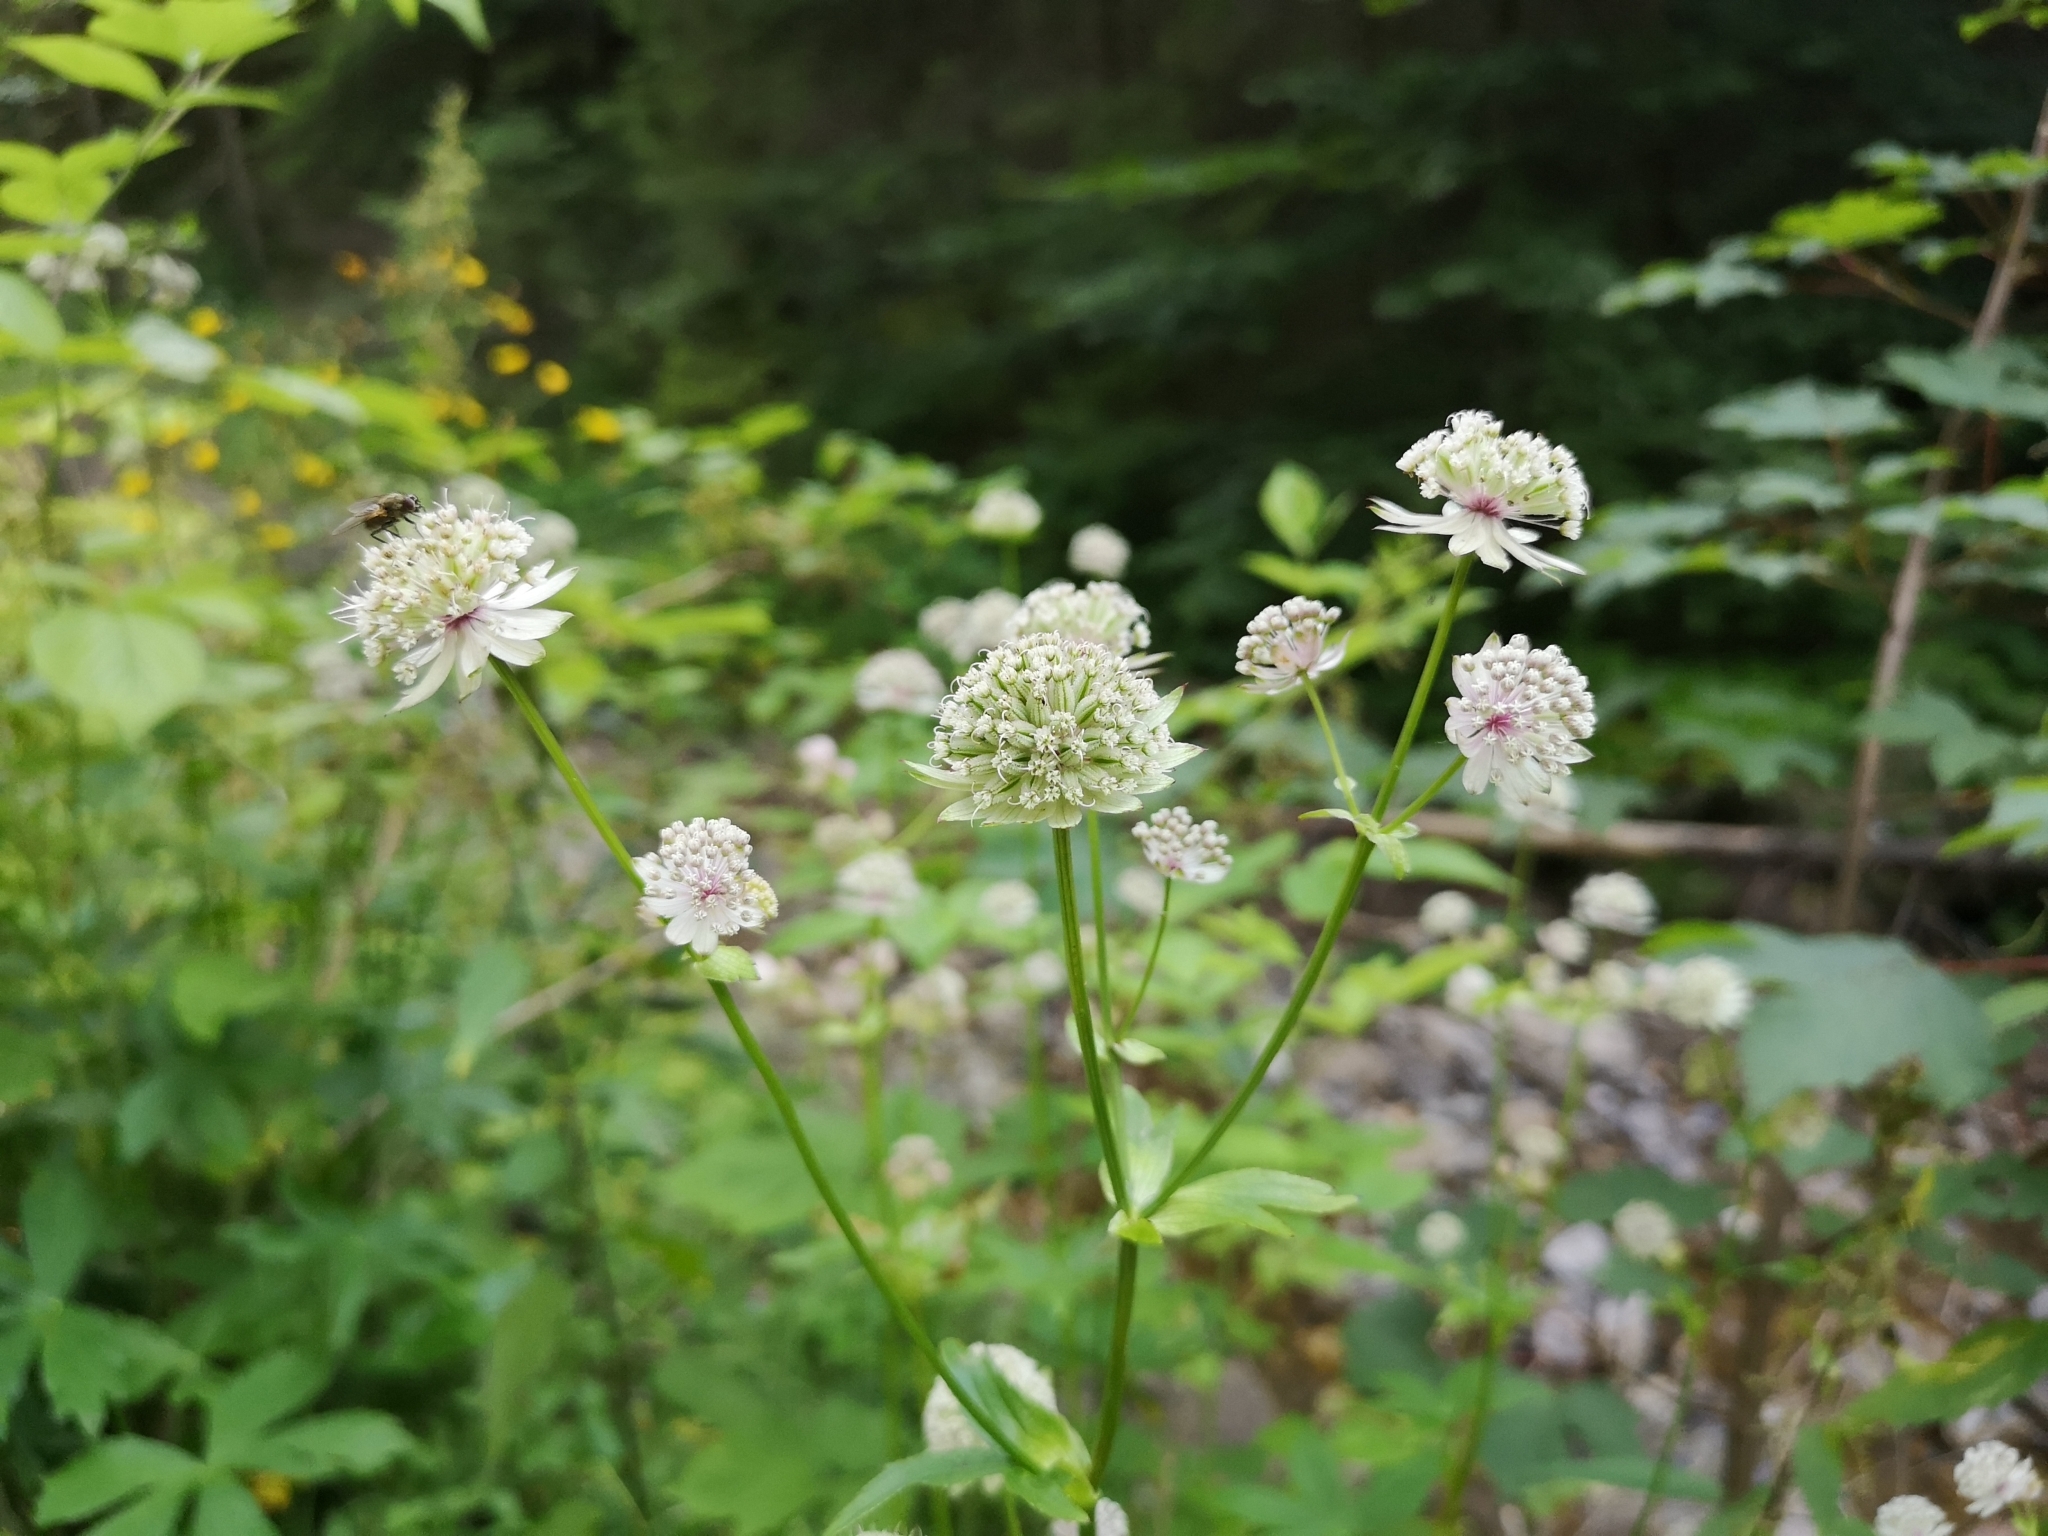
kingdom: Plantae
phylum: Tracheophyta
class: Magnoliopsida
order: Apiales
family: Apiaceae
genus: Astrantia
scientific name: Astrantia major
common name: Greater masterwort
